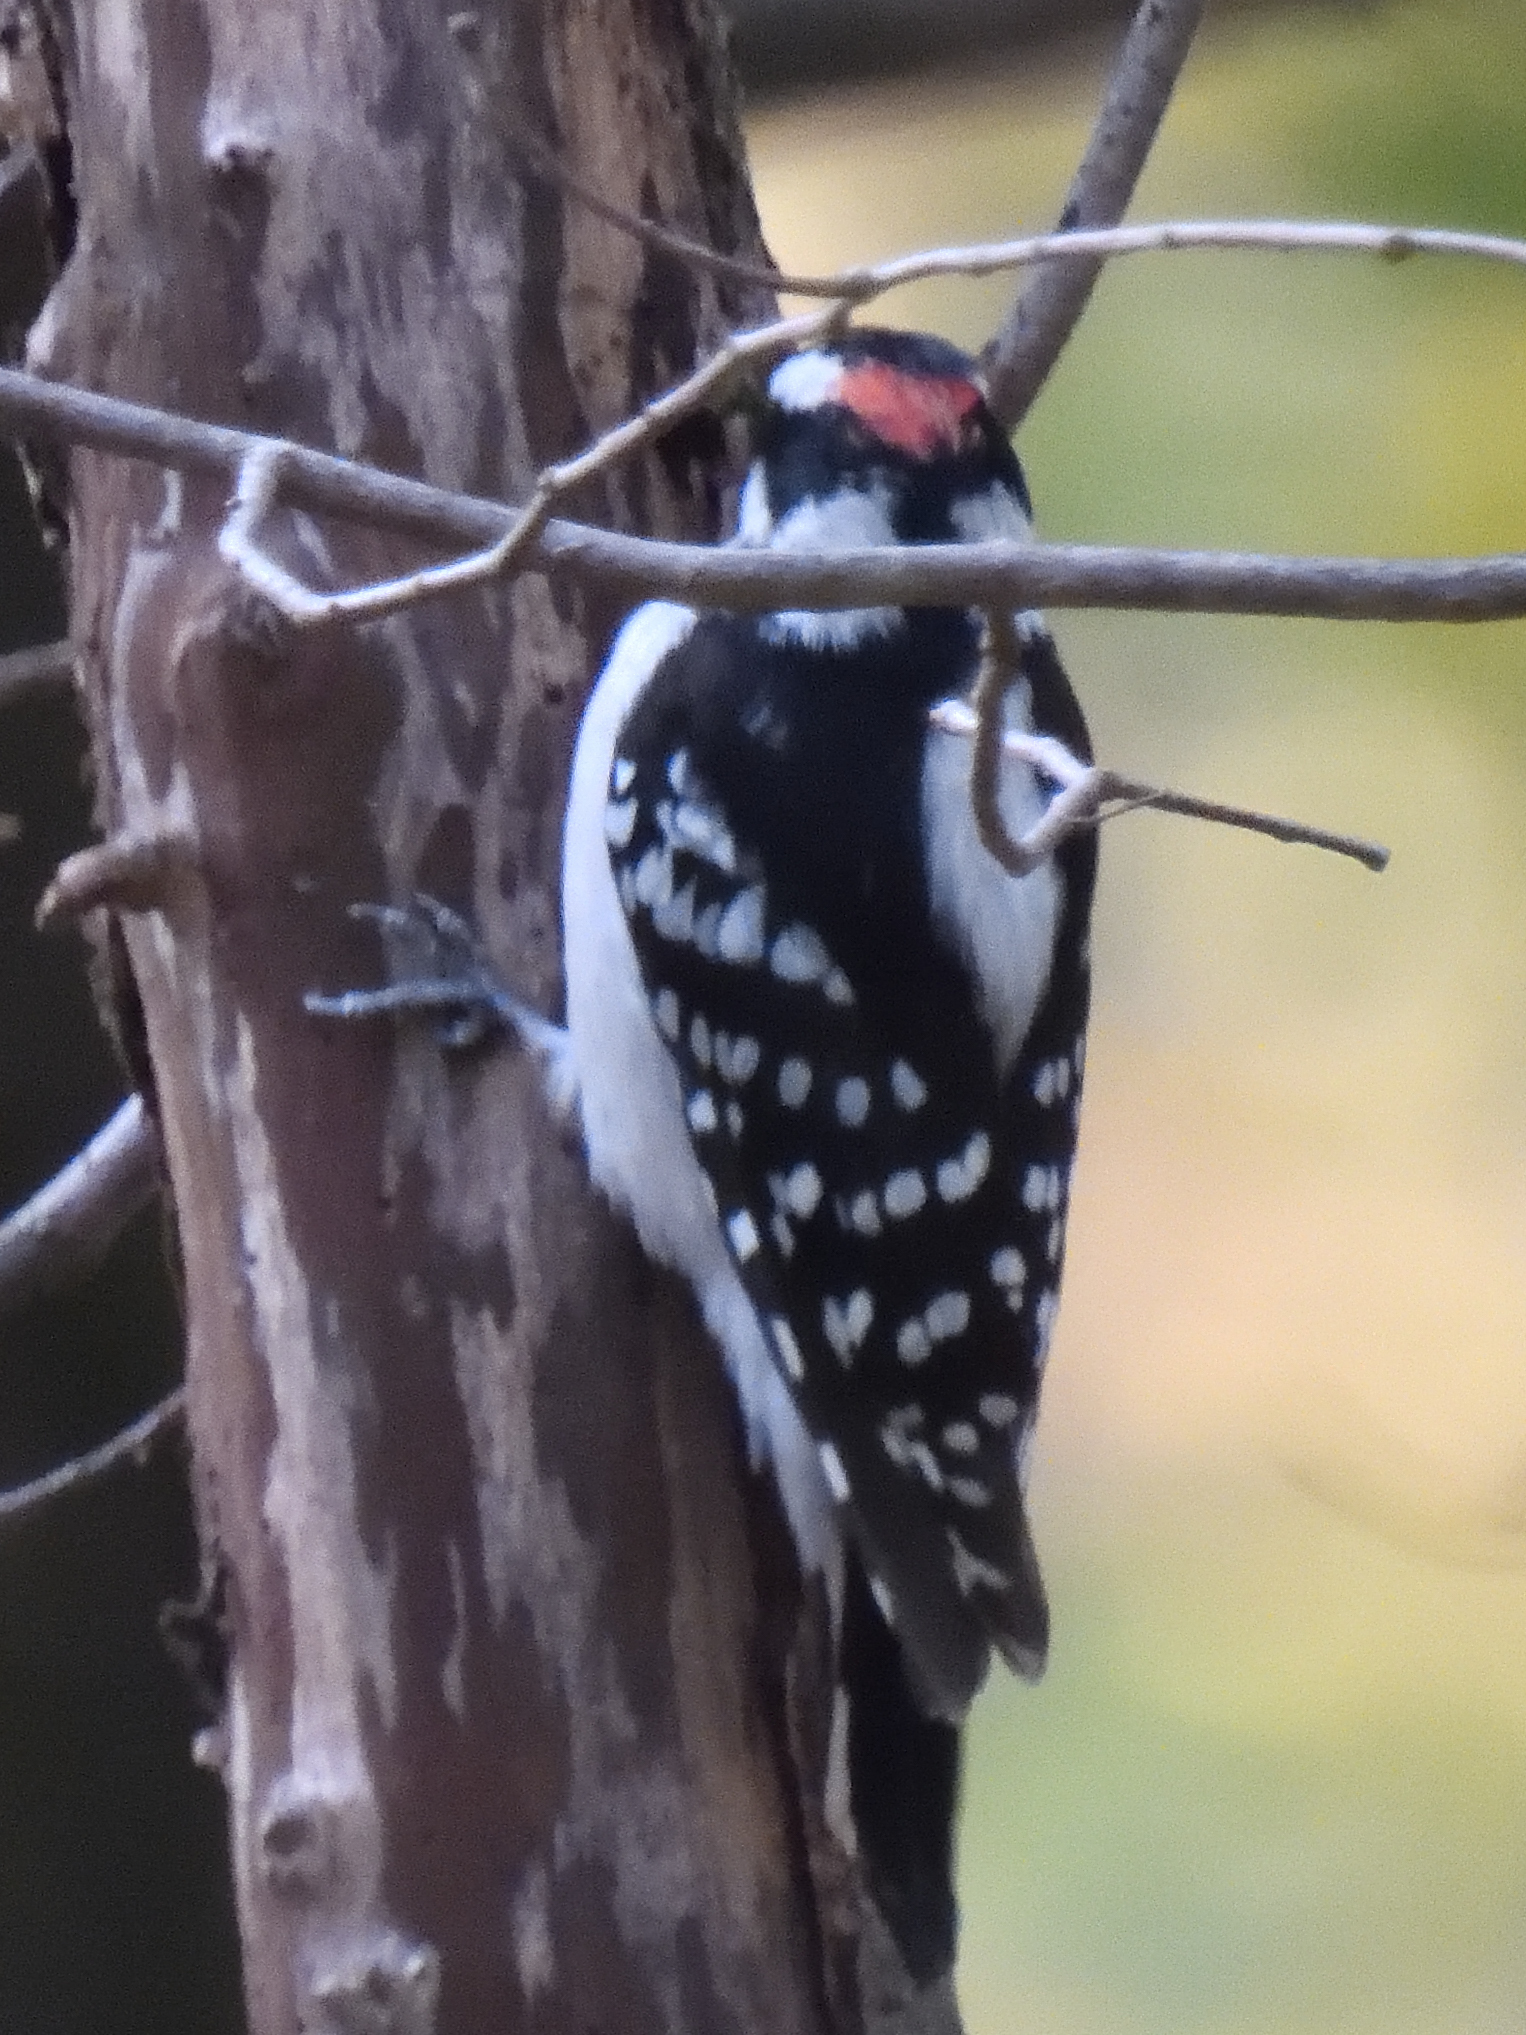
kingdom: Animalia
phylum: Chordata
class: Aves
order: Piciformes
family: Picidae
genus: Dryobates
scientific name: Dryobates pubescens
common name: Downy woodpecker
